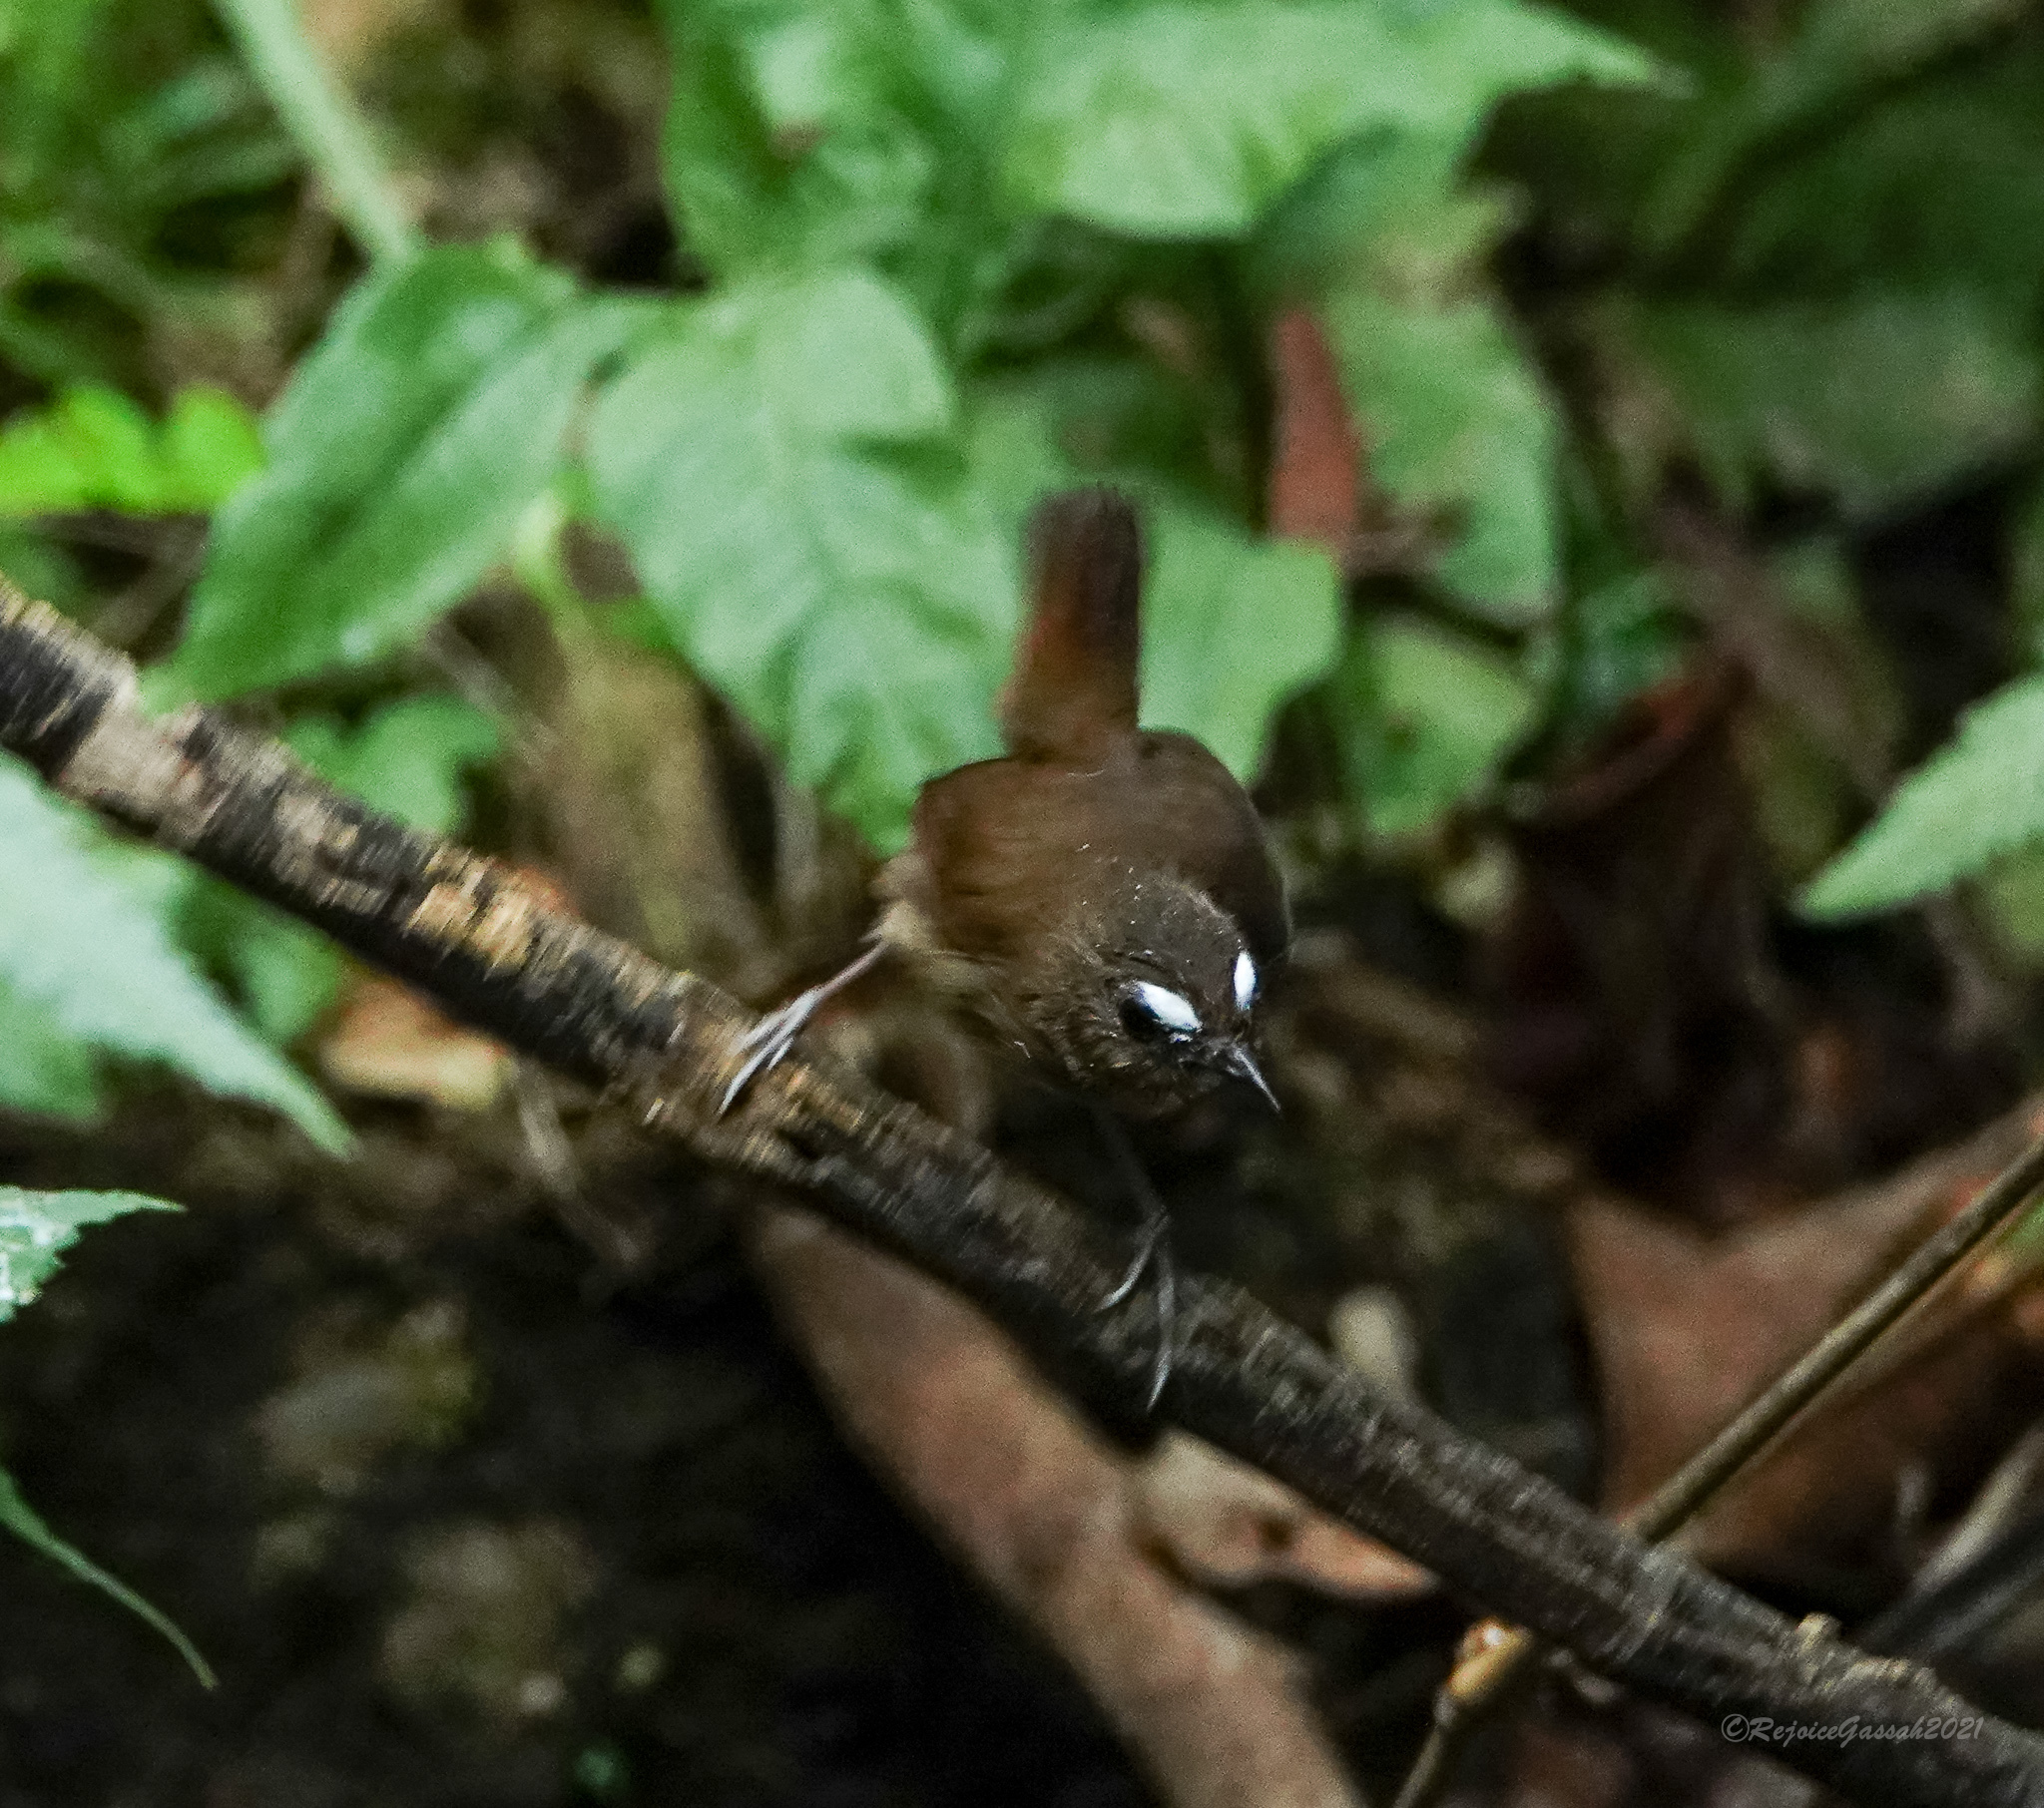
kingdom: Animalia
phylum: Chordata
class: Aves
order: Passeriformes
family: Muscicapidae
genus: Brachypteryx
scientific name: Brachypteryx leucophris
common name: Lesser shortwing
